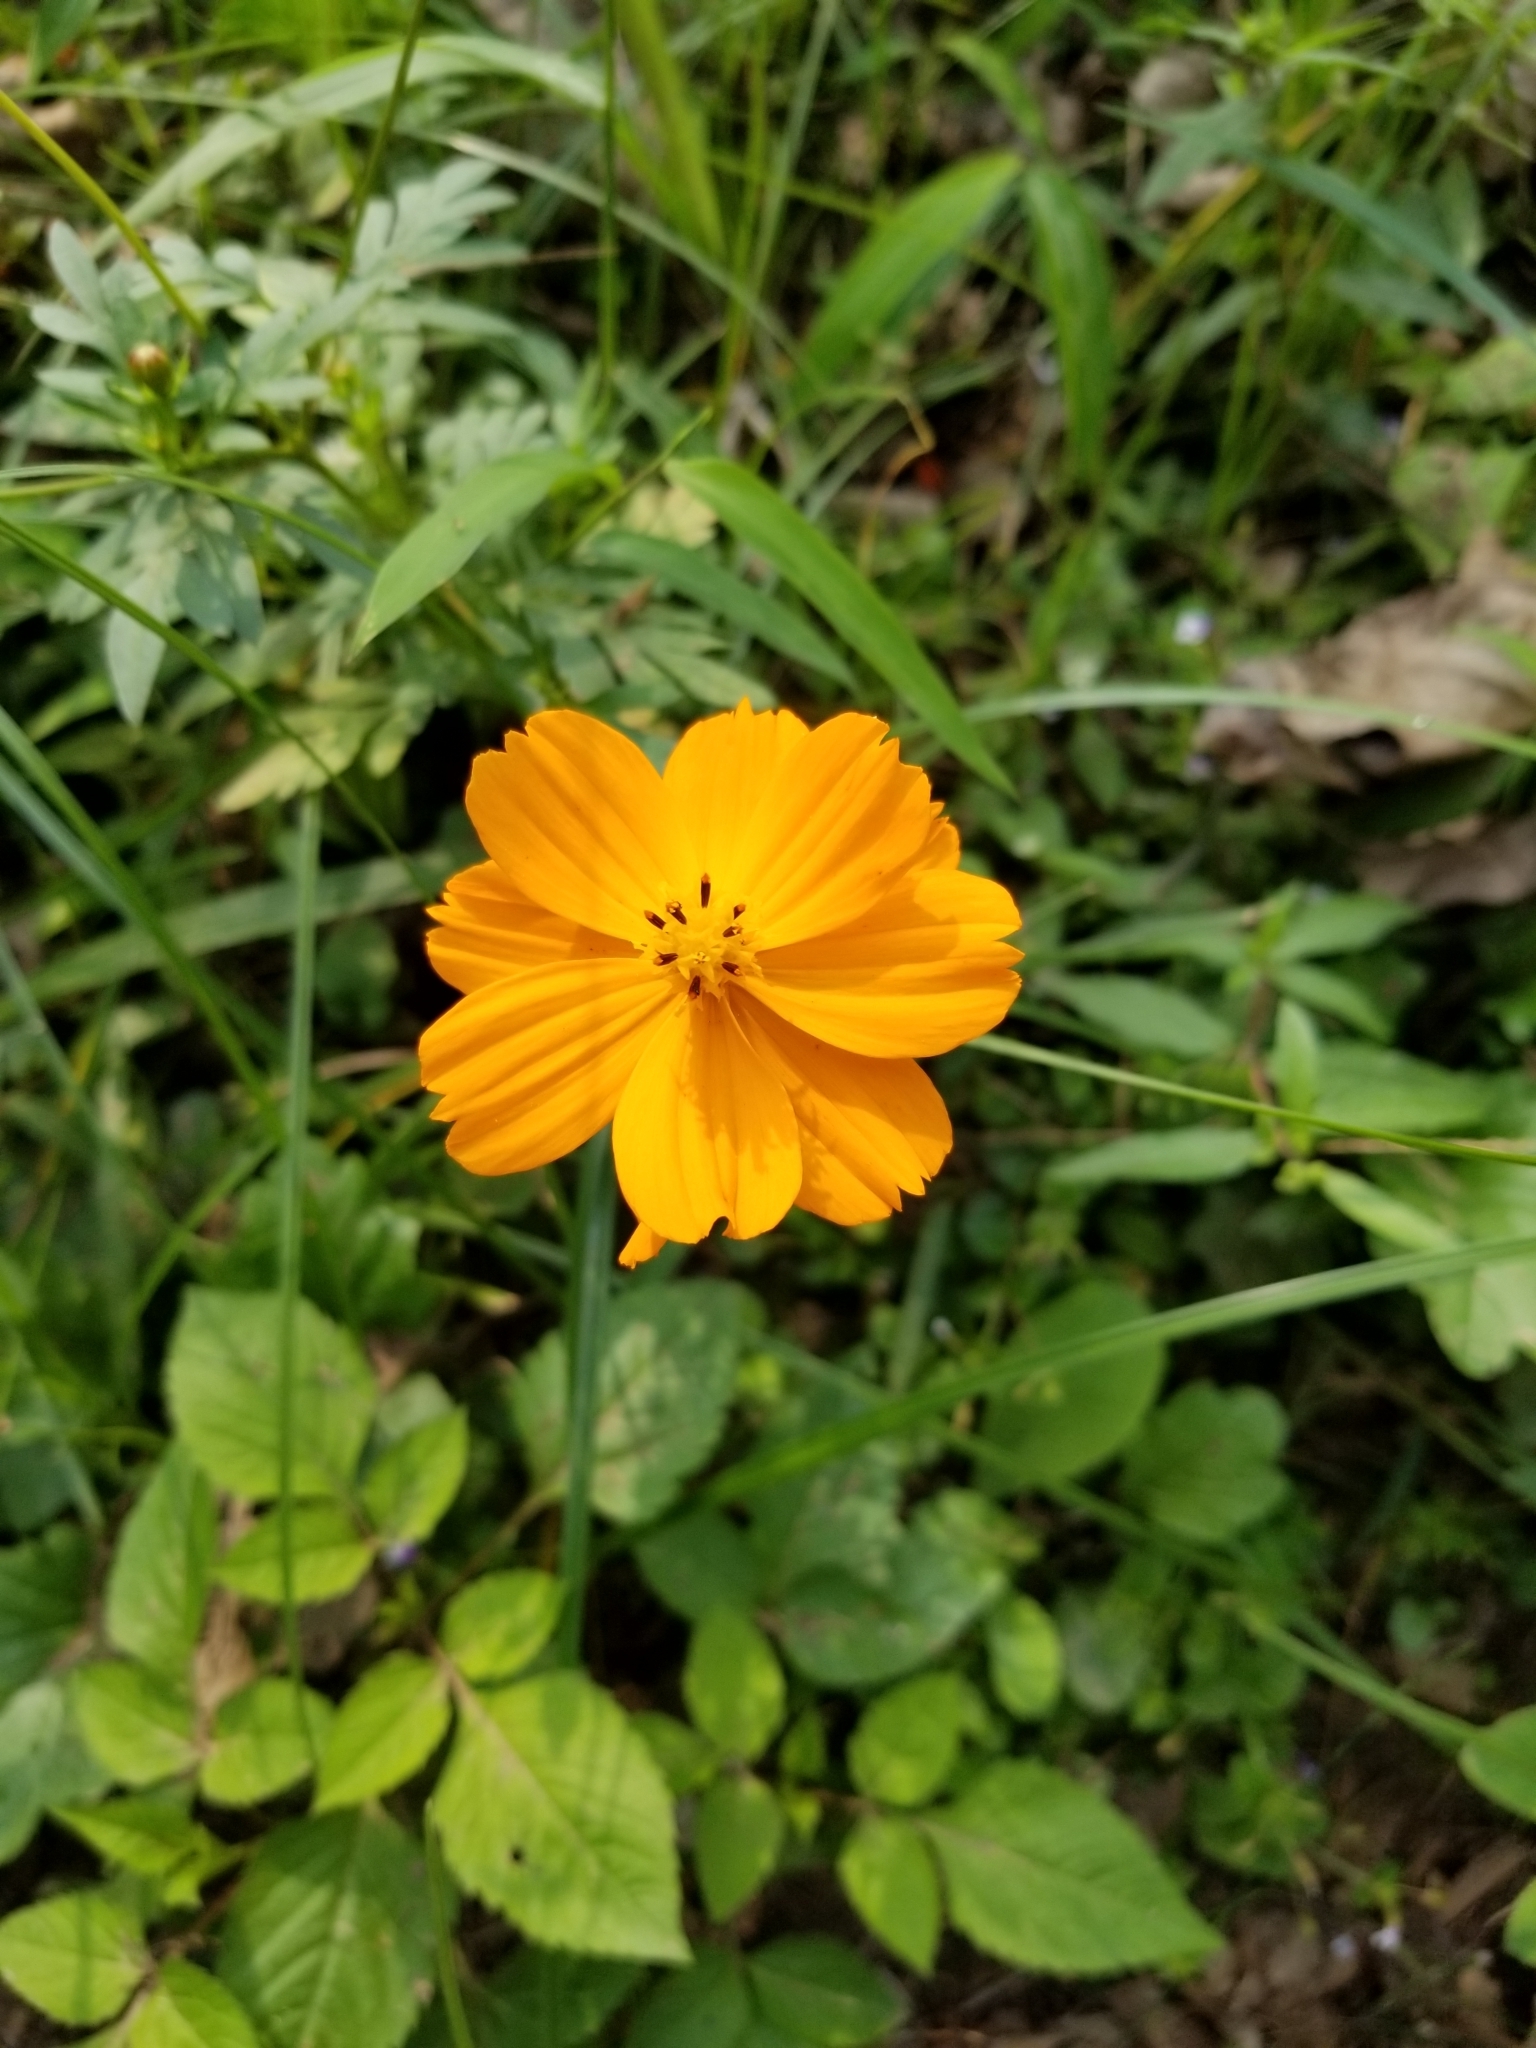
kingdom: Plantae
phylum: Tracheophyta
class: Magnoliopsida
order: Asterales
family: Asteraceae
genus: Cosmos
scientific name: Cosmos sulphureus
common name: Sulphur cosmos
